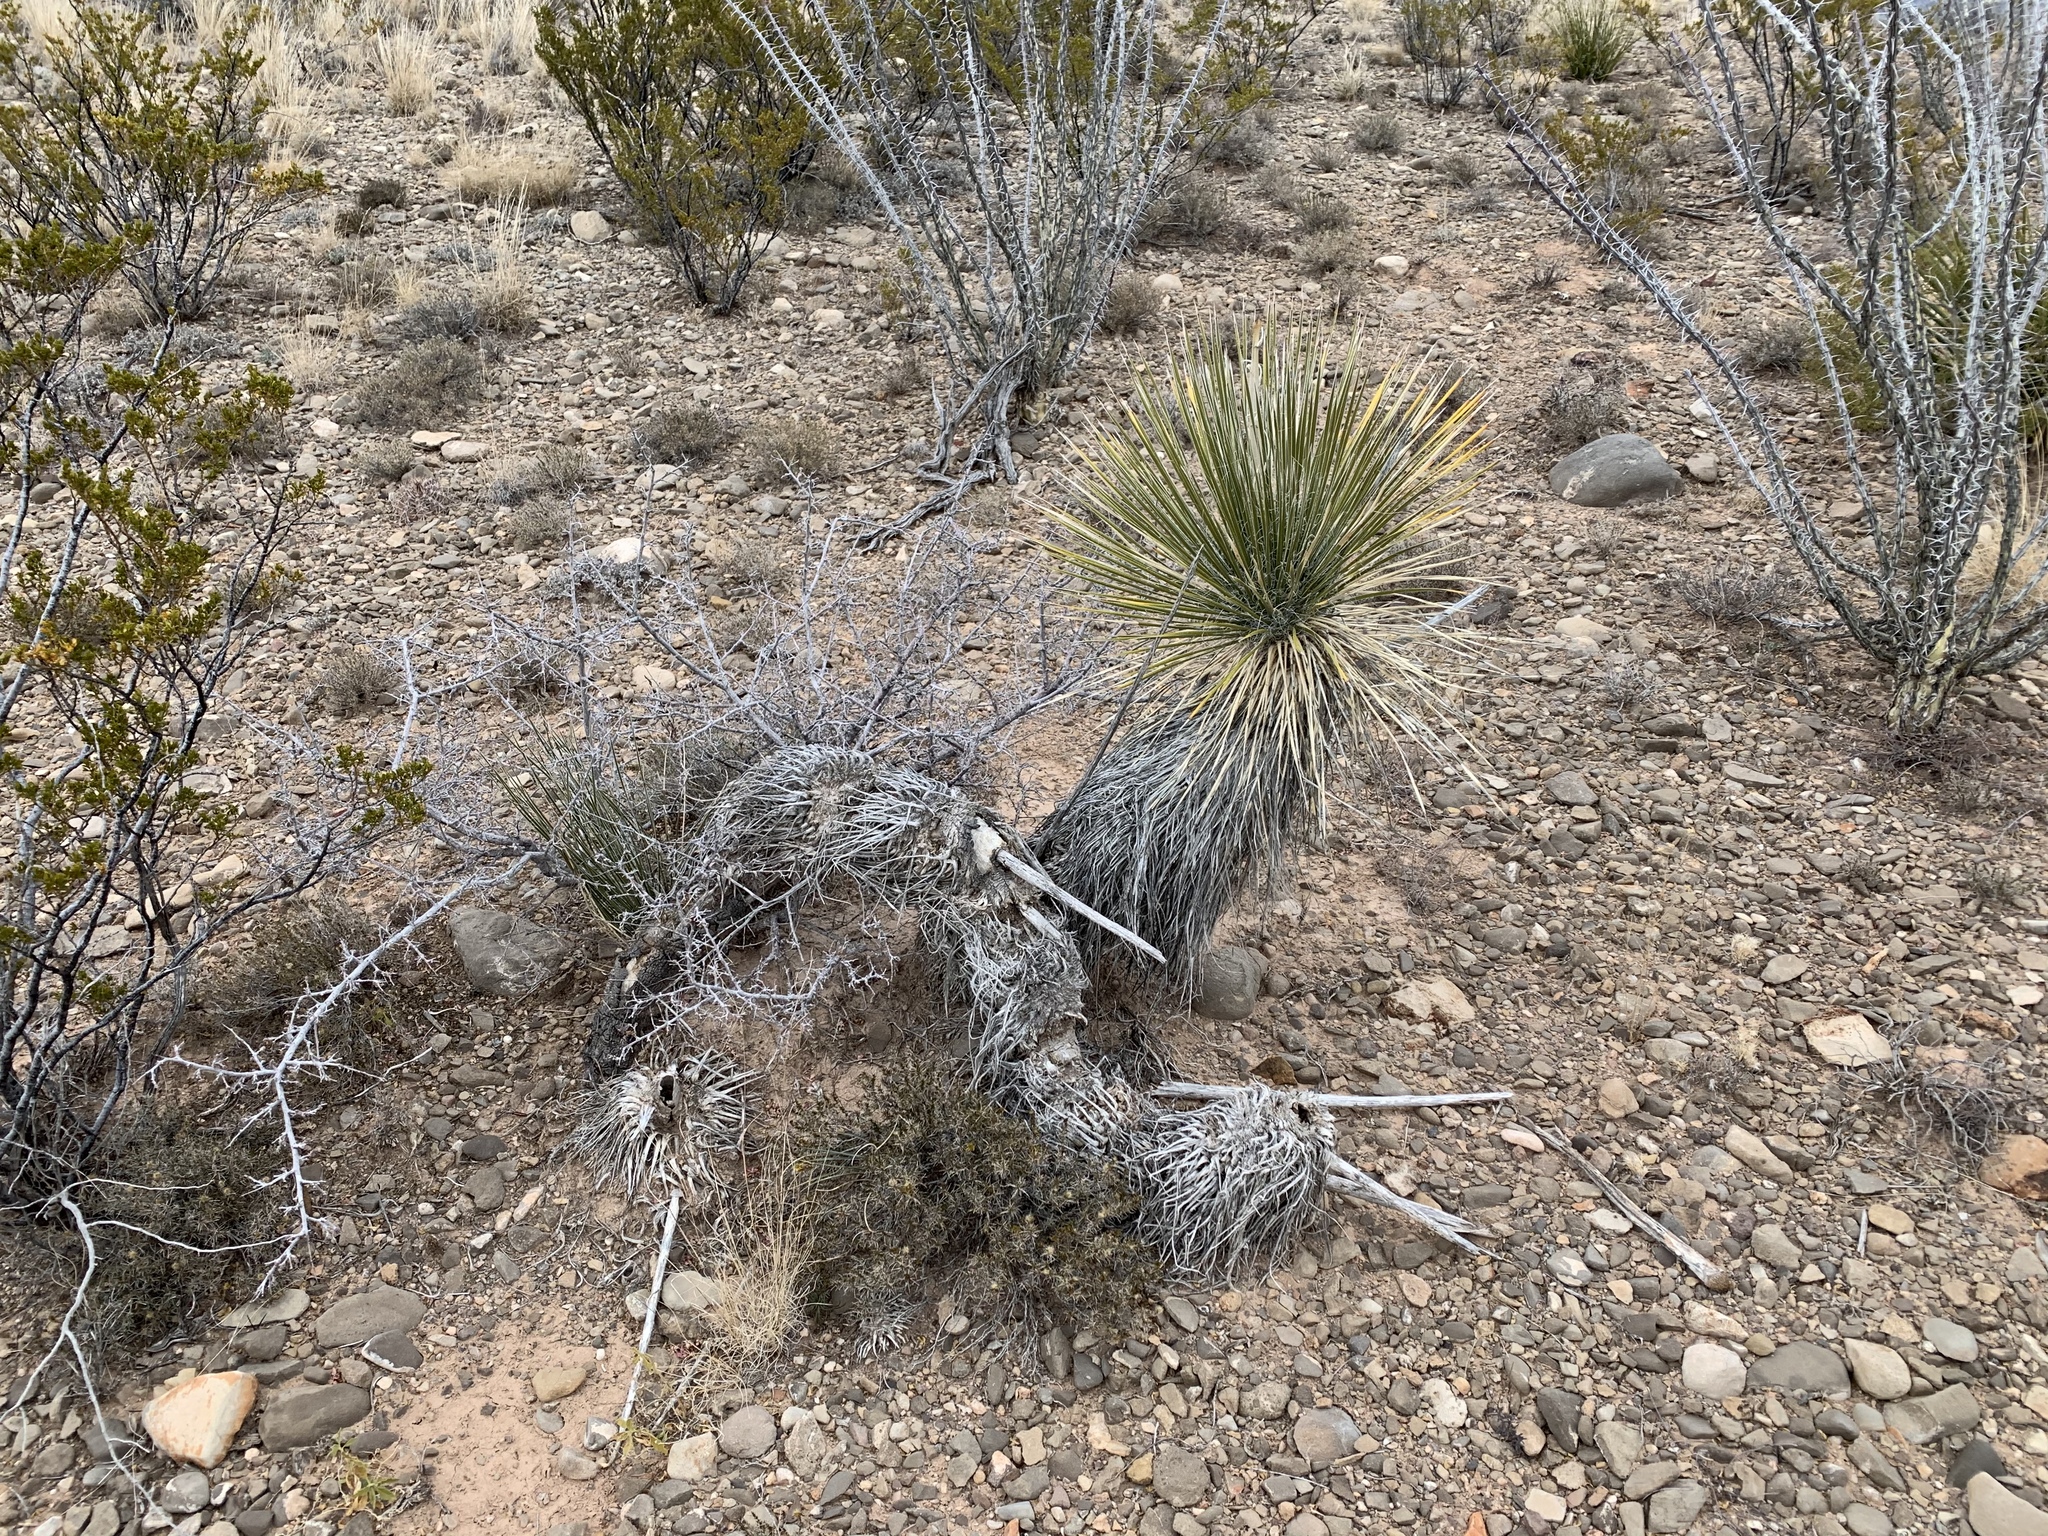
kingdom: Plantae
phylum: Tracheophyta
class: Liliopsida
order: Asparagales
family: Asparagaceae
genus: Yucca
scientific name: Yucca elata
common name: Palmella
